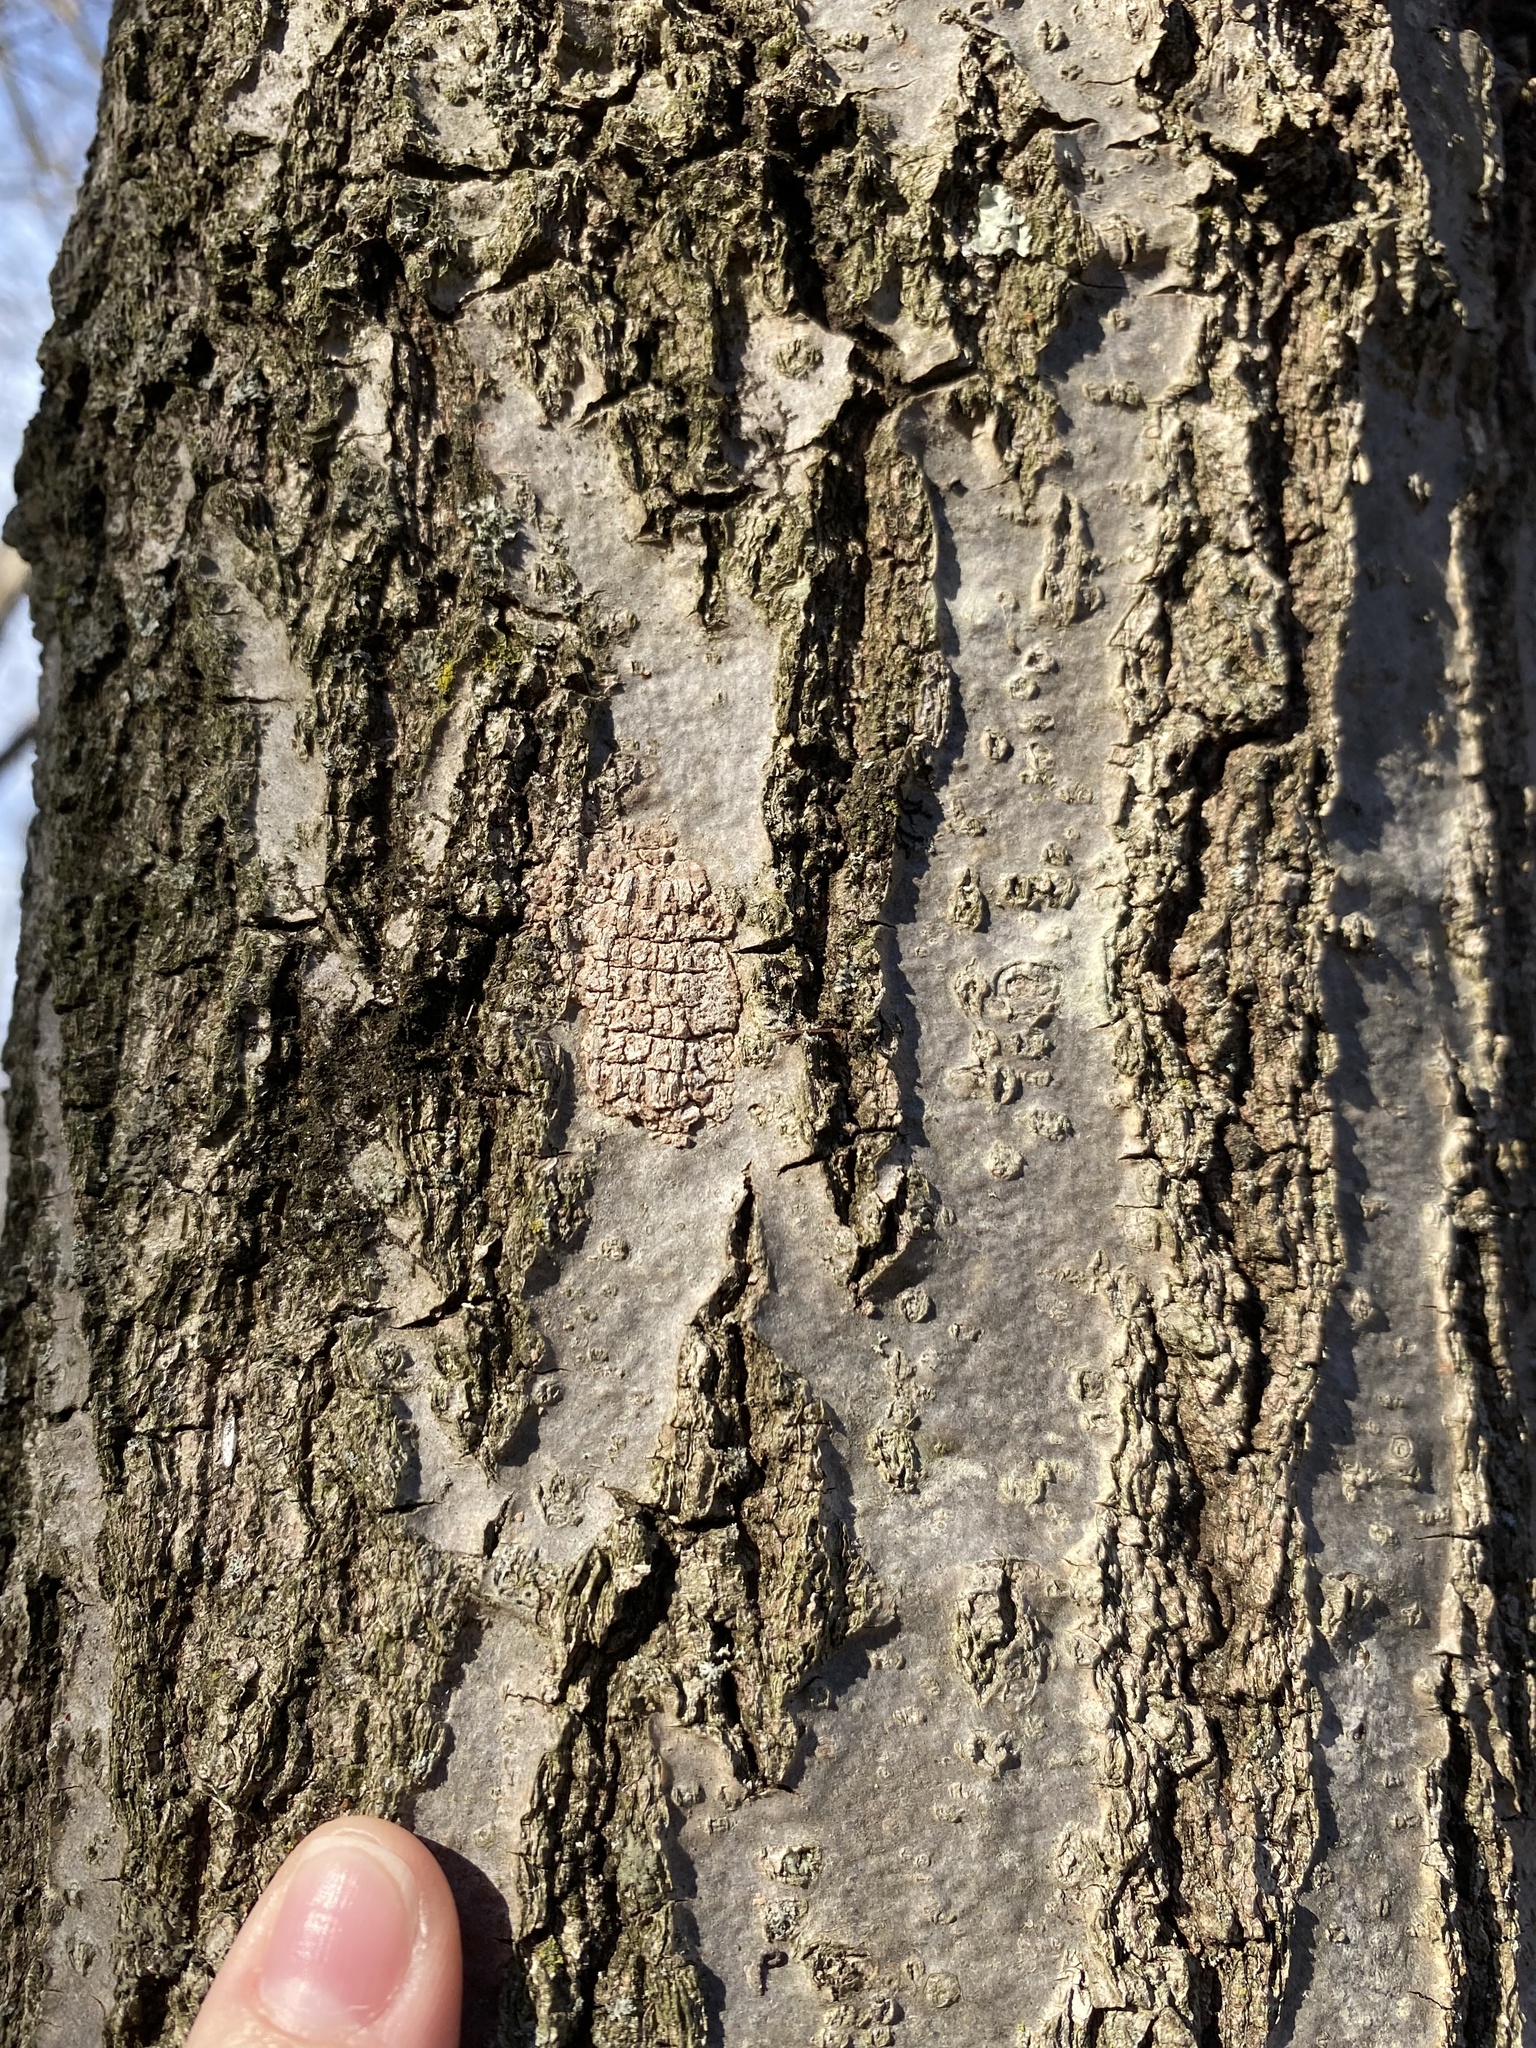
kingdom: Animalia
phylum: Arthropoda
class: Insecta
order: Hemiptera
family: Fulgoridae
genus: Lycorma
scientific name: Lycorma delicatula
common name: Spotted lanternfly
